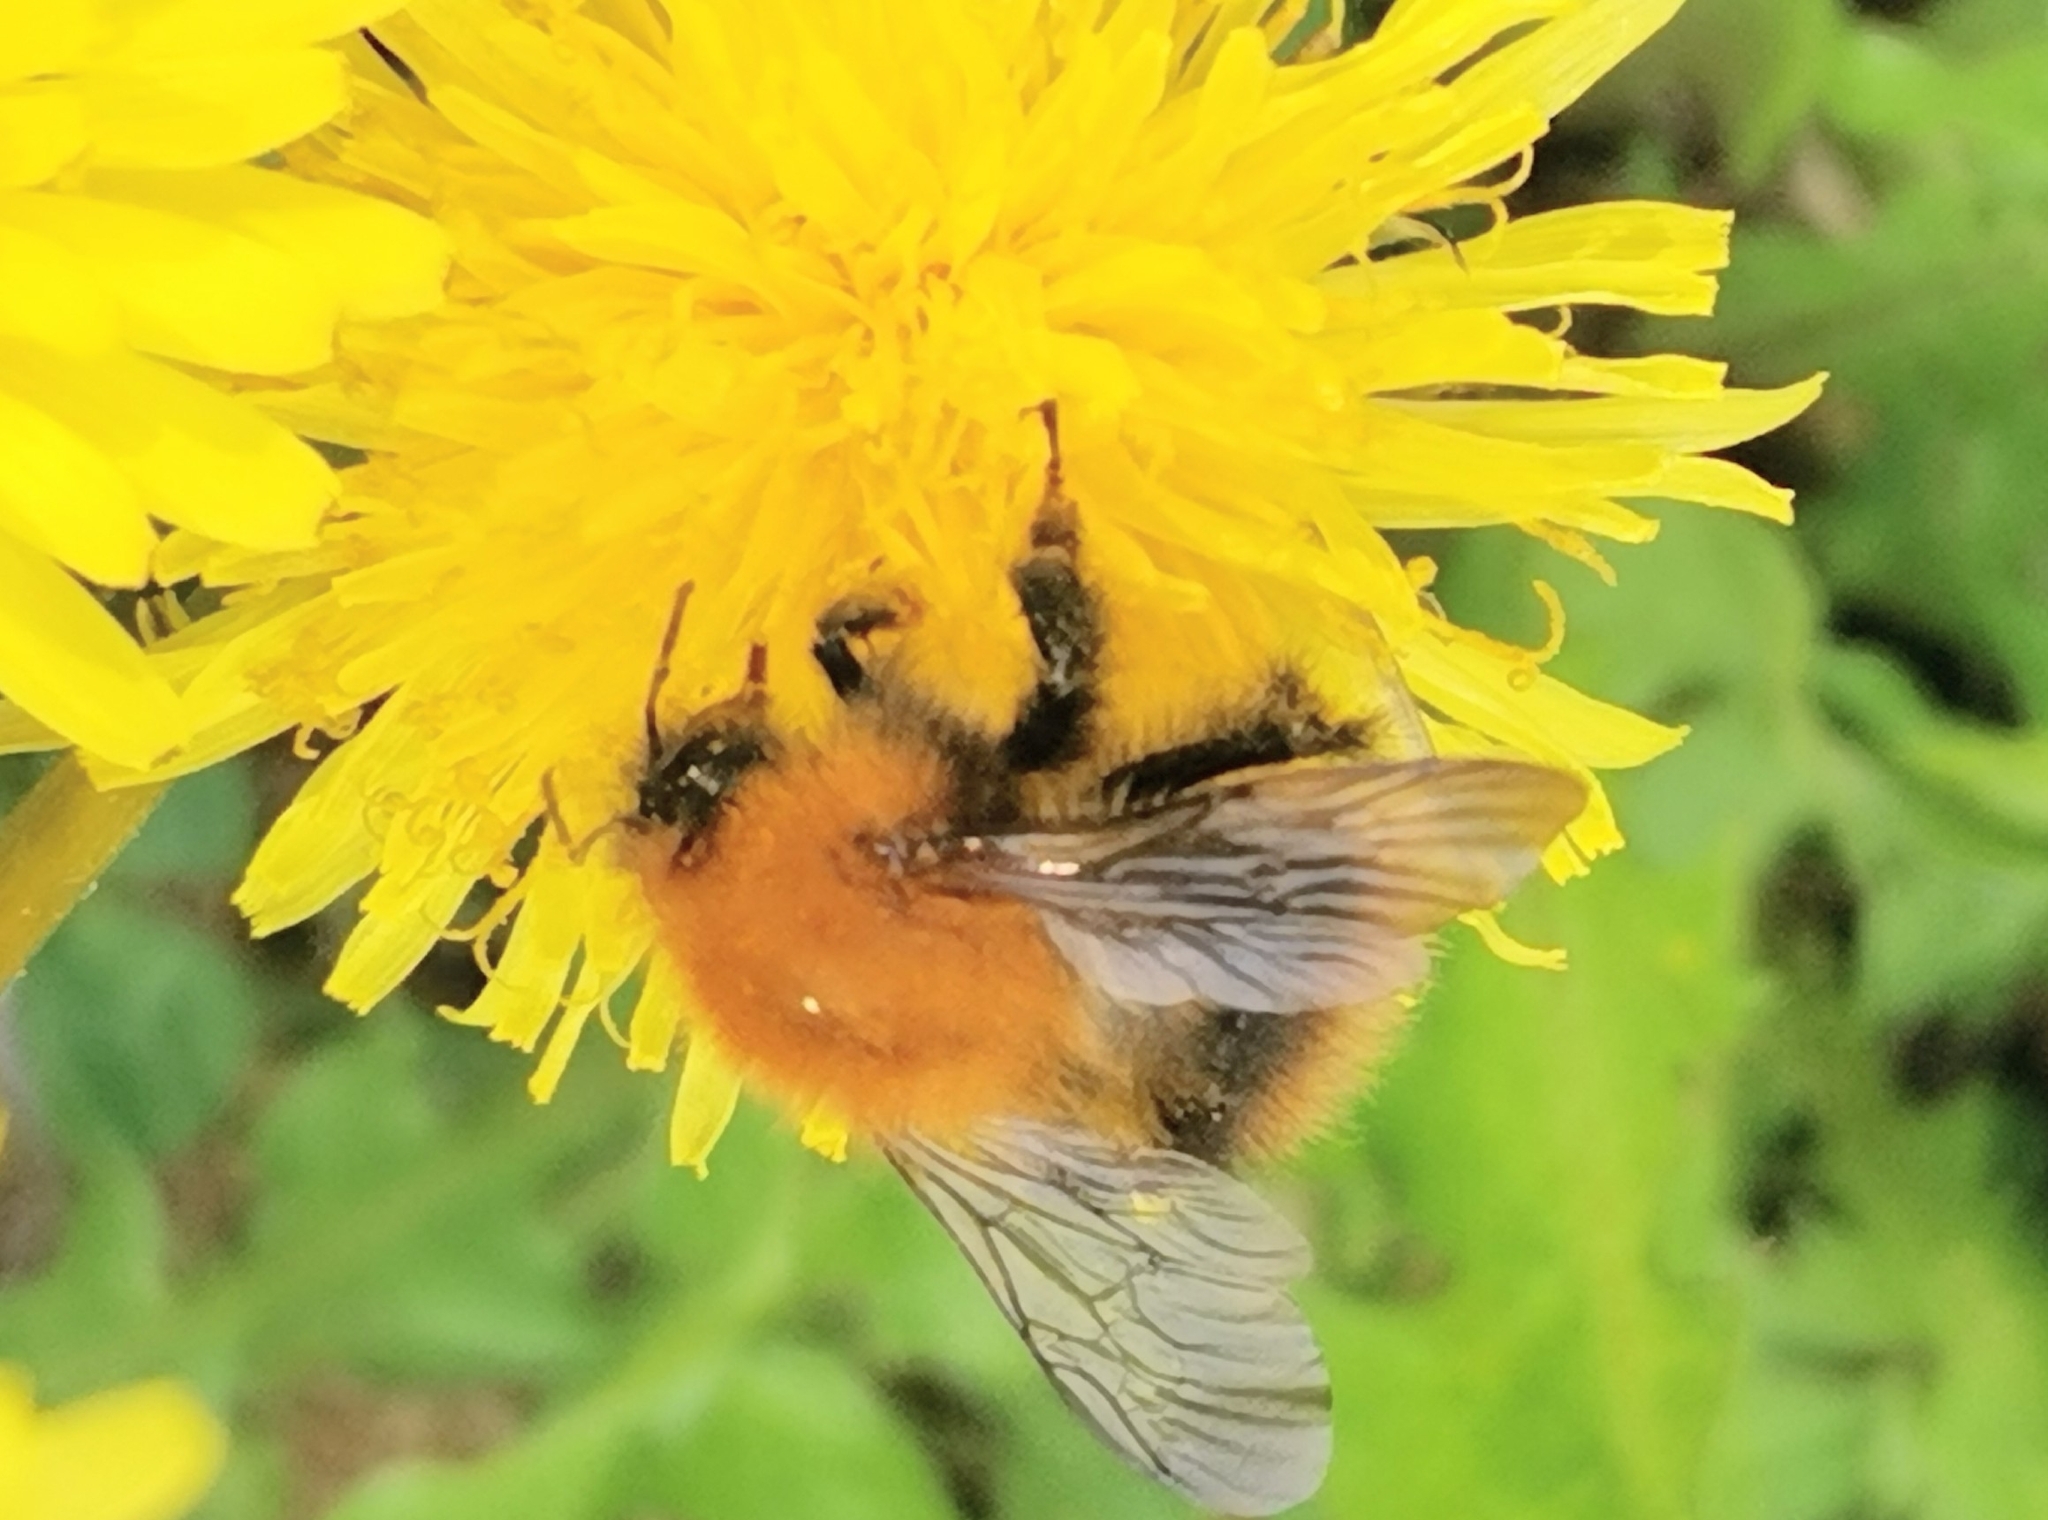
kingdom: Animalia
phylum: Arthropoda
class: Insecta
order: Hymenoptera
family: Apidae
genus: Bombus
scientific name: Bombus pascuorum
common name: Common carder bee
